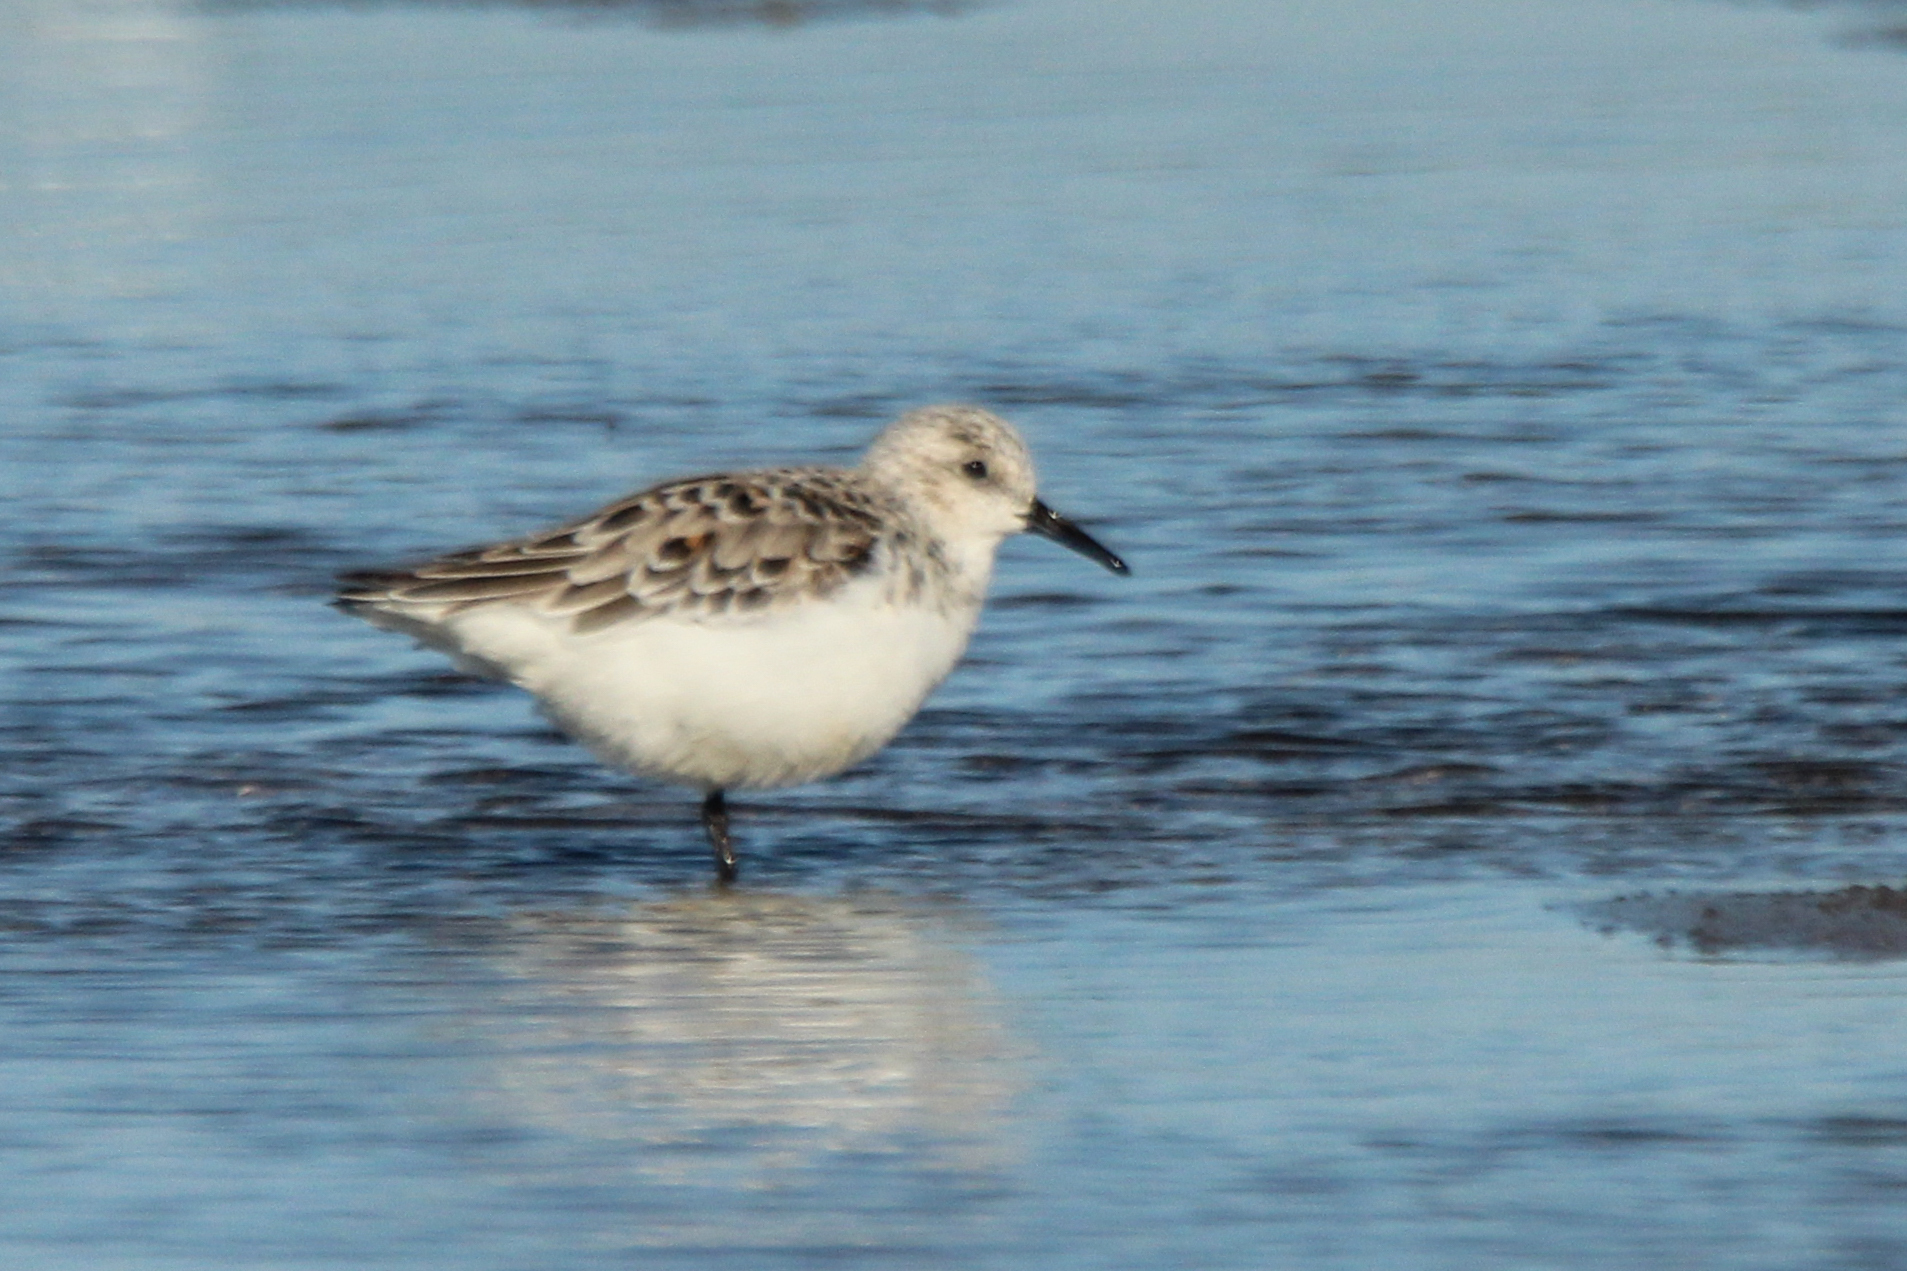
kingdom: Animalia
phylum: Chordata
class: Aves
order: Charadriiformes
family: Scolopacidae
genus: Calidris
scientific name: Calidris alba
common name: Sanderling
